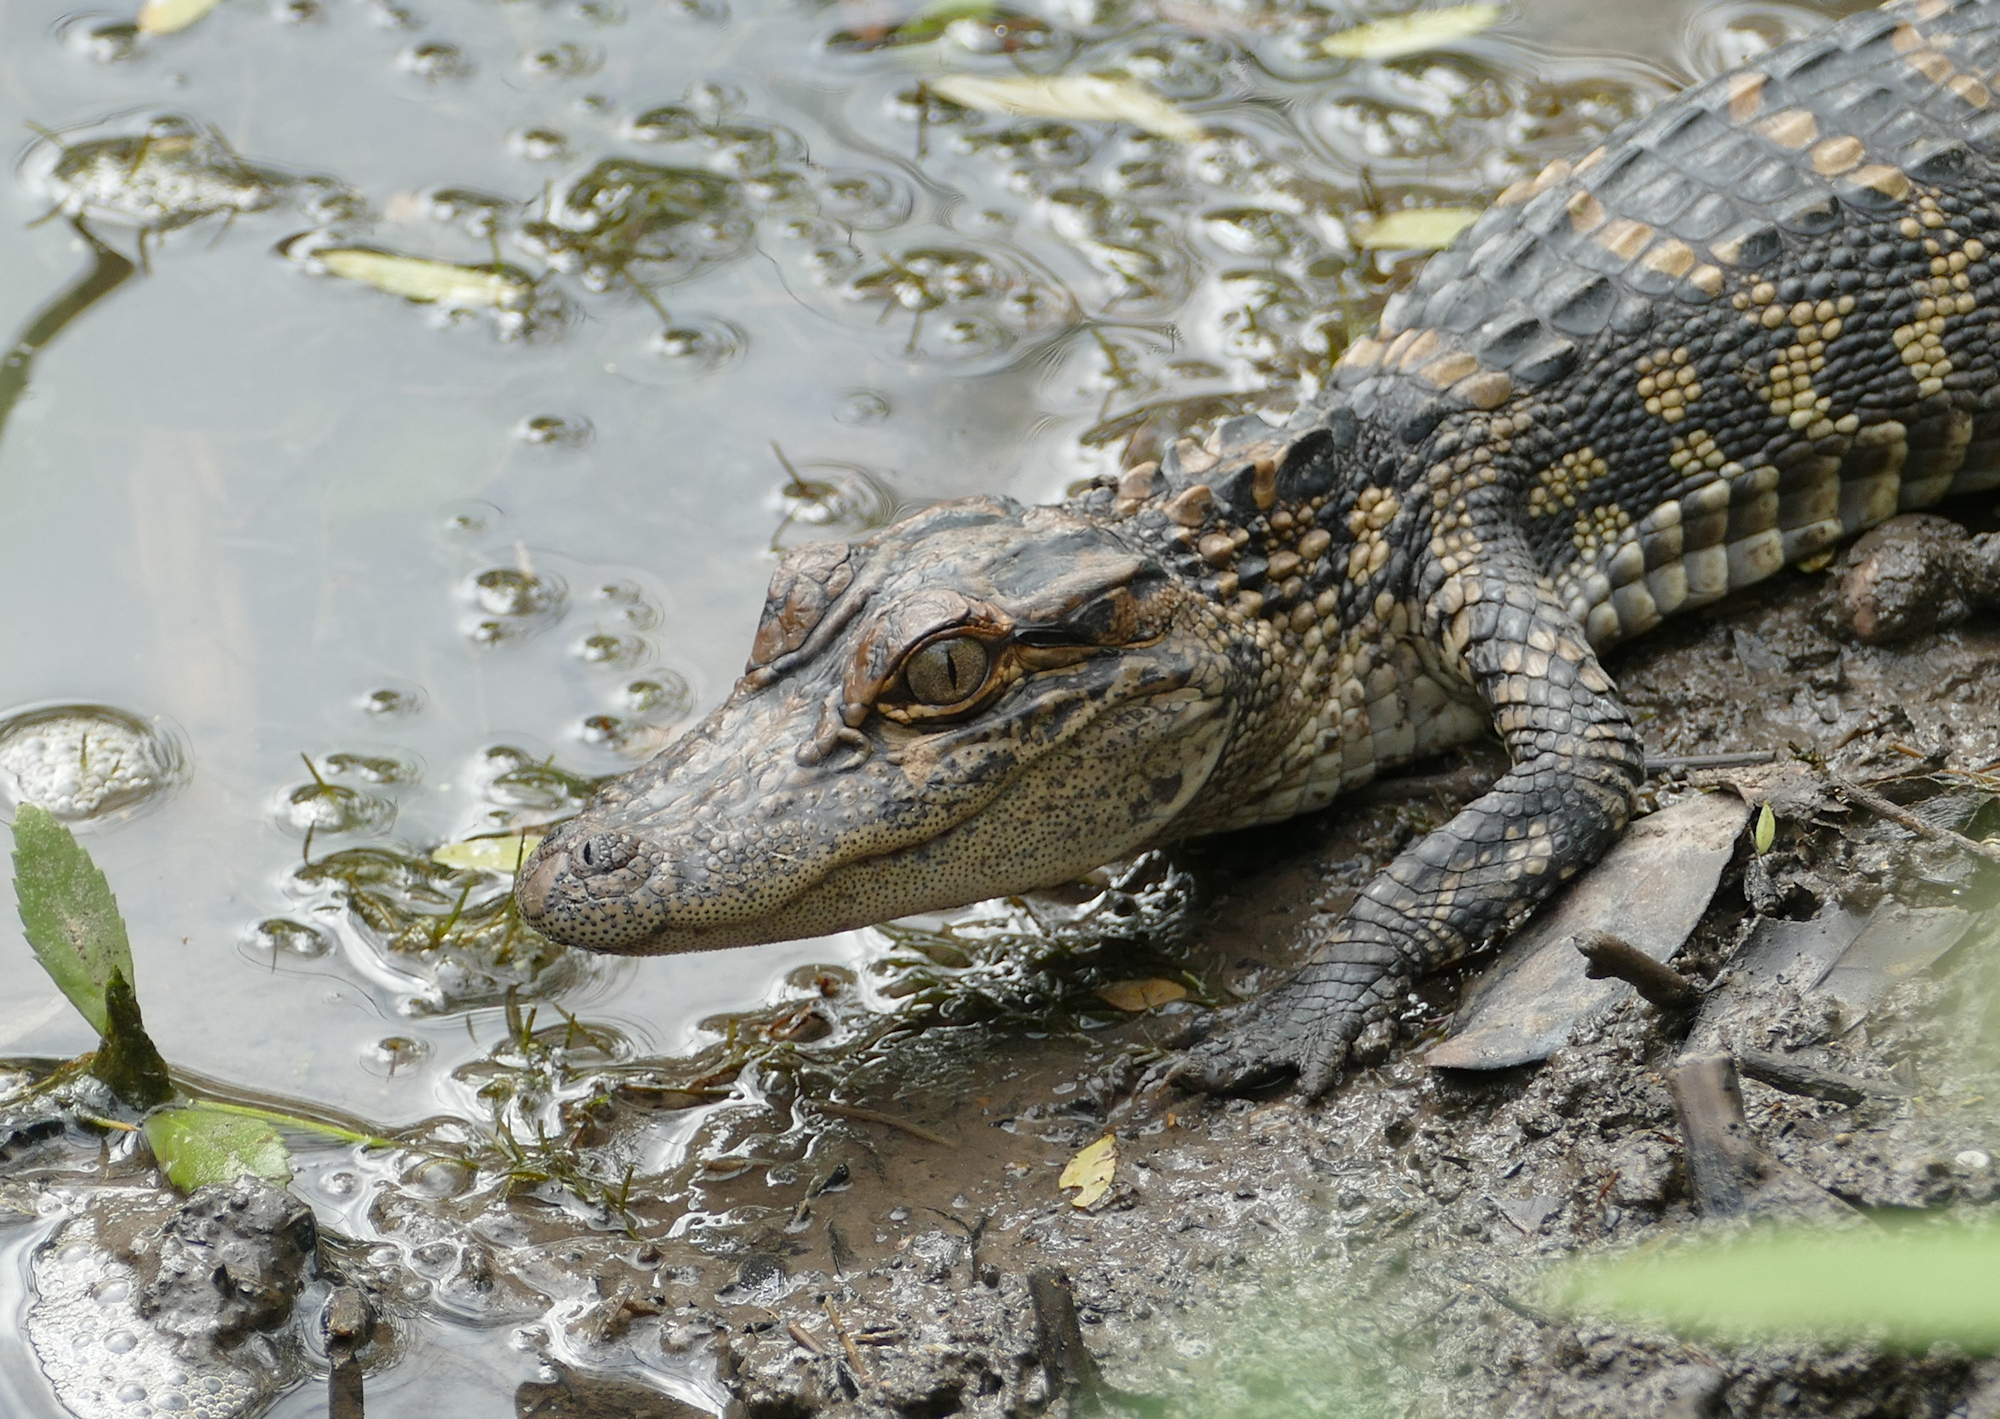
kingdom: Animalia
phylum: Chordata
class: Crocodylia
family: Alligatoridae
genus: Alligator
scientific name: Alligator mississippiensis
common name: American alligator
